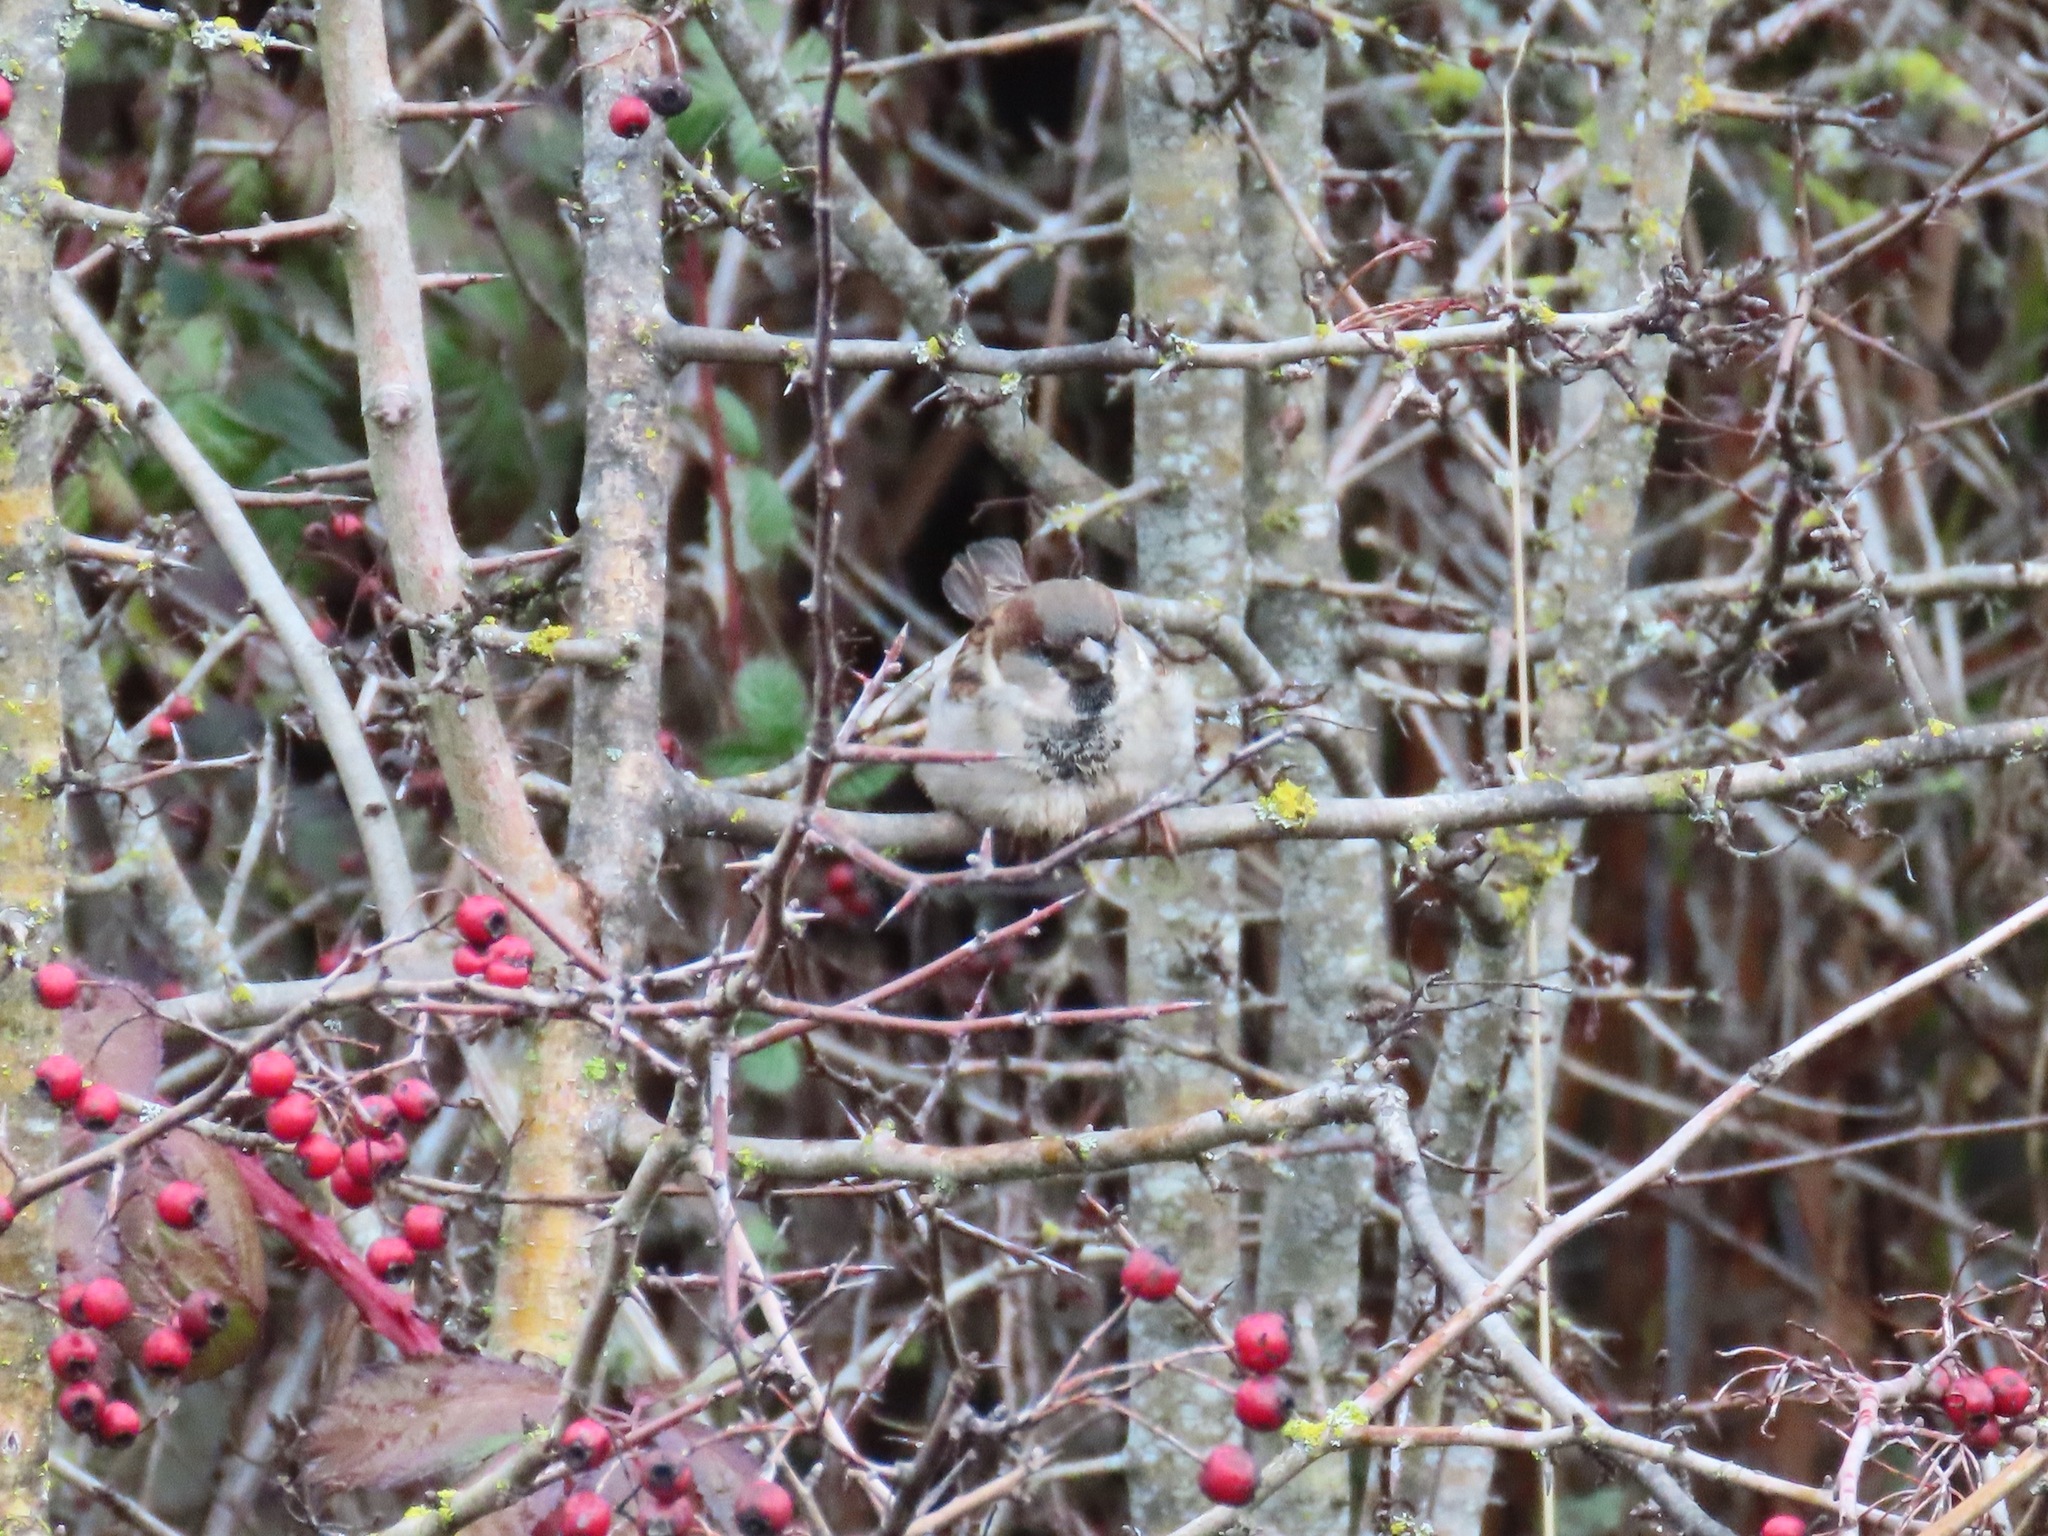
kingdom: Animalia
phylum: Chordata
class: Aves
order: Passeriformes
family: Passeridae
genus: Passer
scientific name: Passer domesticus
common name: House sparrow
